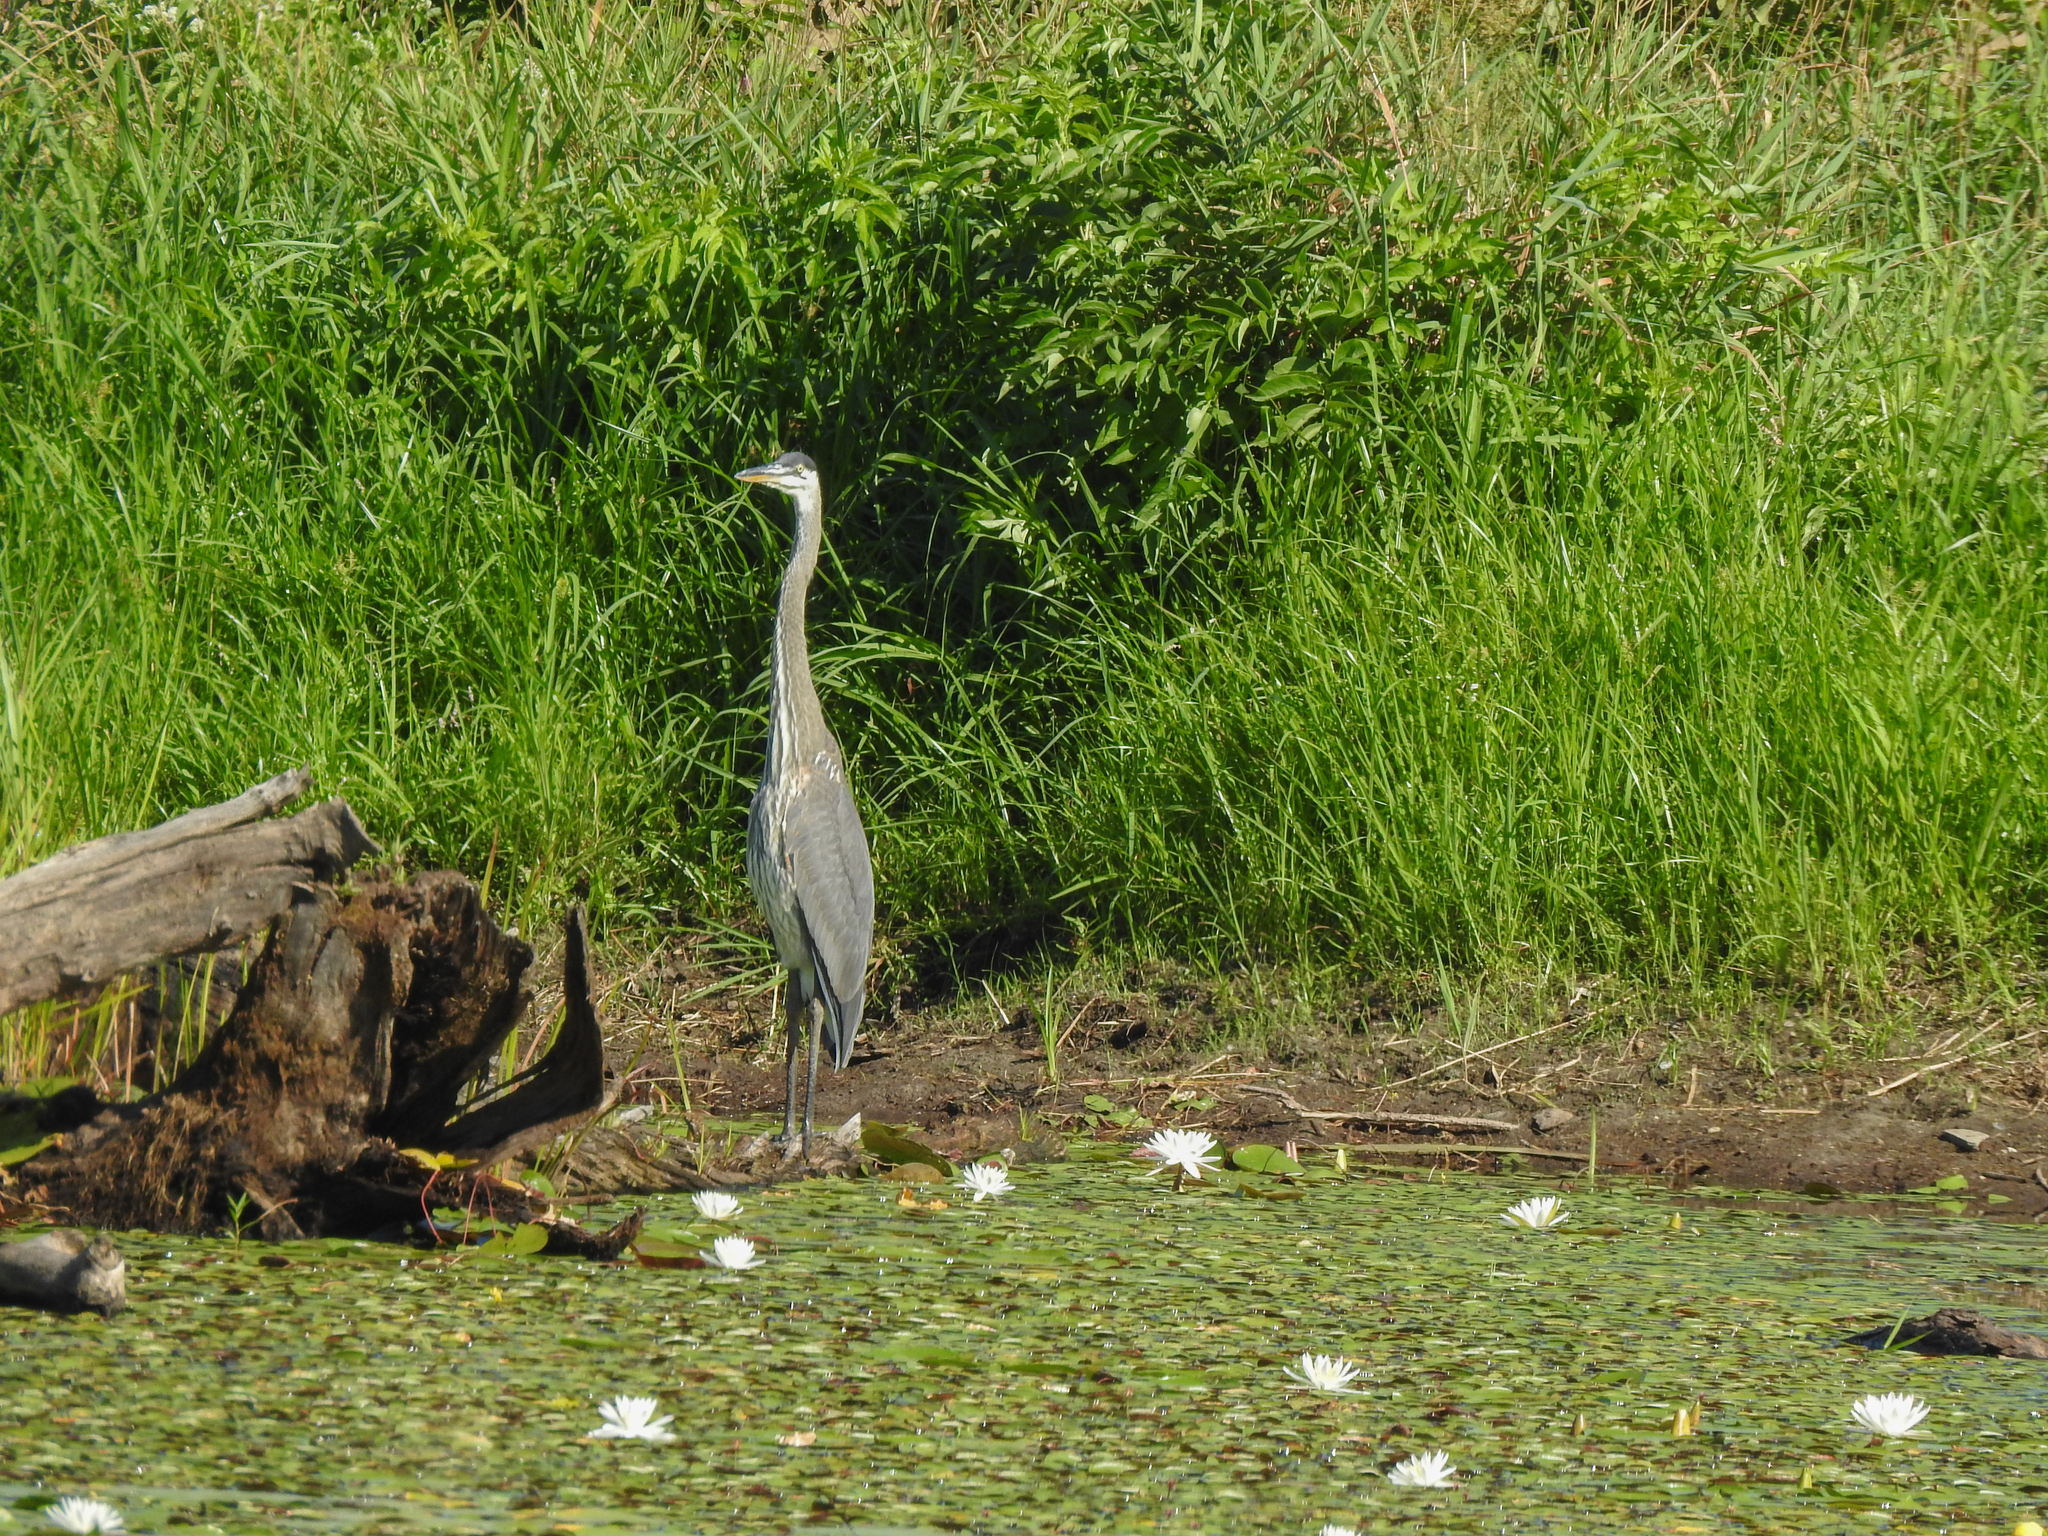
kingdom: Animalia
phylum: Chordata
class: Aves
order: Pelecaniformes
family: Ardeidae
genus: Ardea
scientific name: Ardea herodias
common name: Great blue heron
